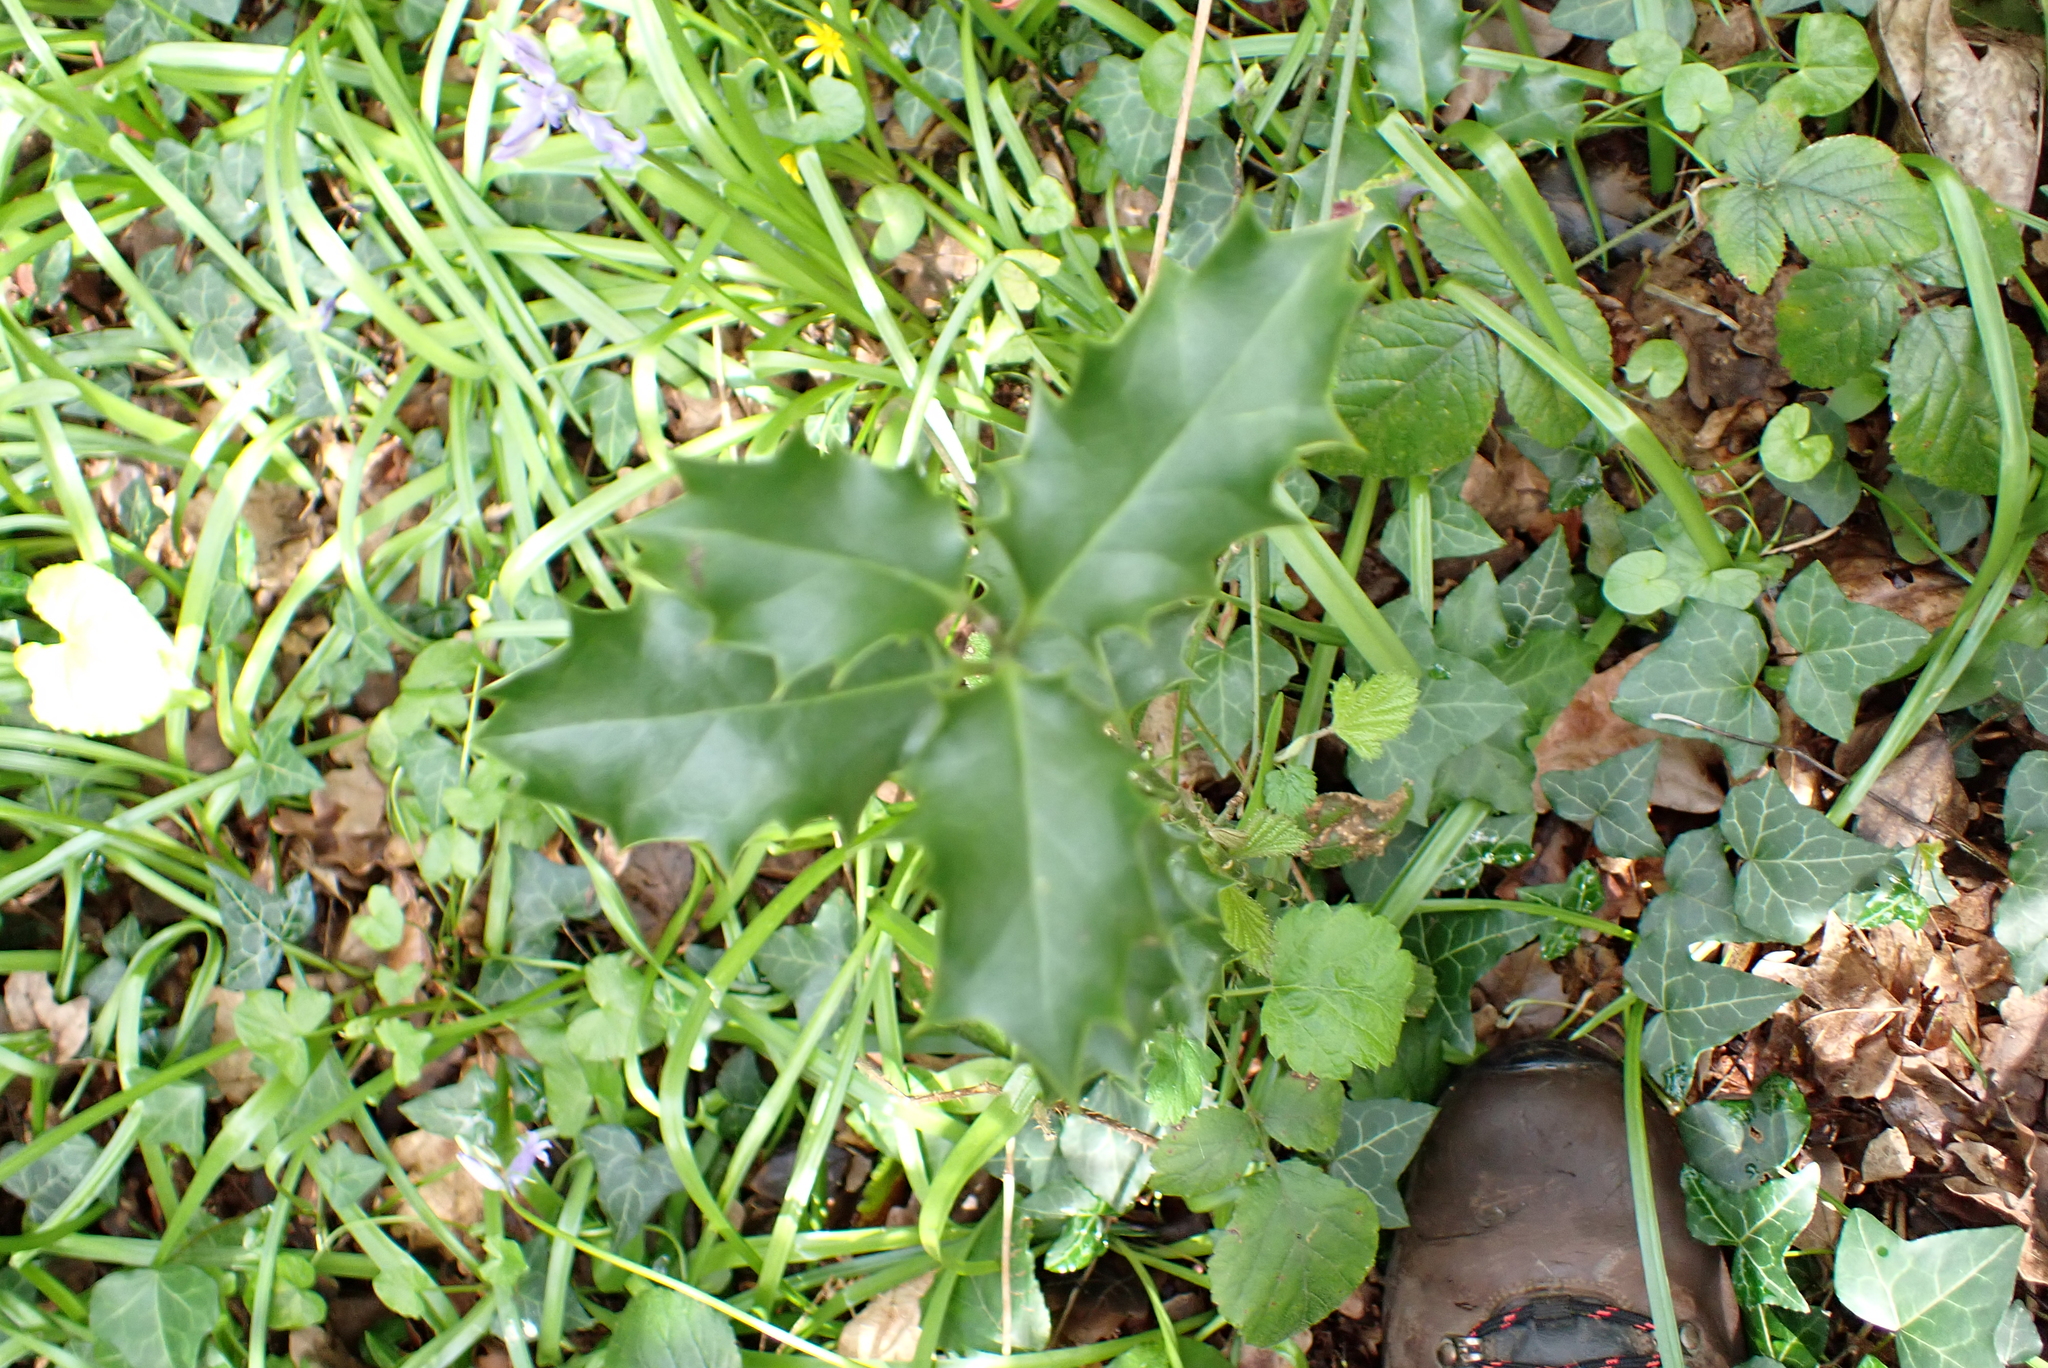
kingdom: Plantae
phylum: Tracheophyta
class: Magnoliopsida
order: Aquifoliales
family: Aquifoliaceae
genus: Ilex
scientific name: Ilex aquifolium
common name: English holly
